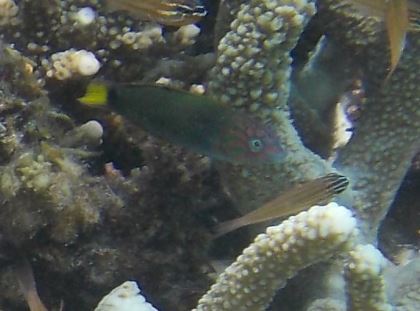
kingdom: Animalia
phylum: Chordata
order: Perciformes
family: Labridae
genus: Thalassoma
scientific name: Thalassoma lunare
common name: Blue wrasse
